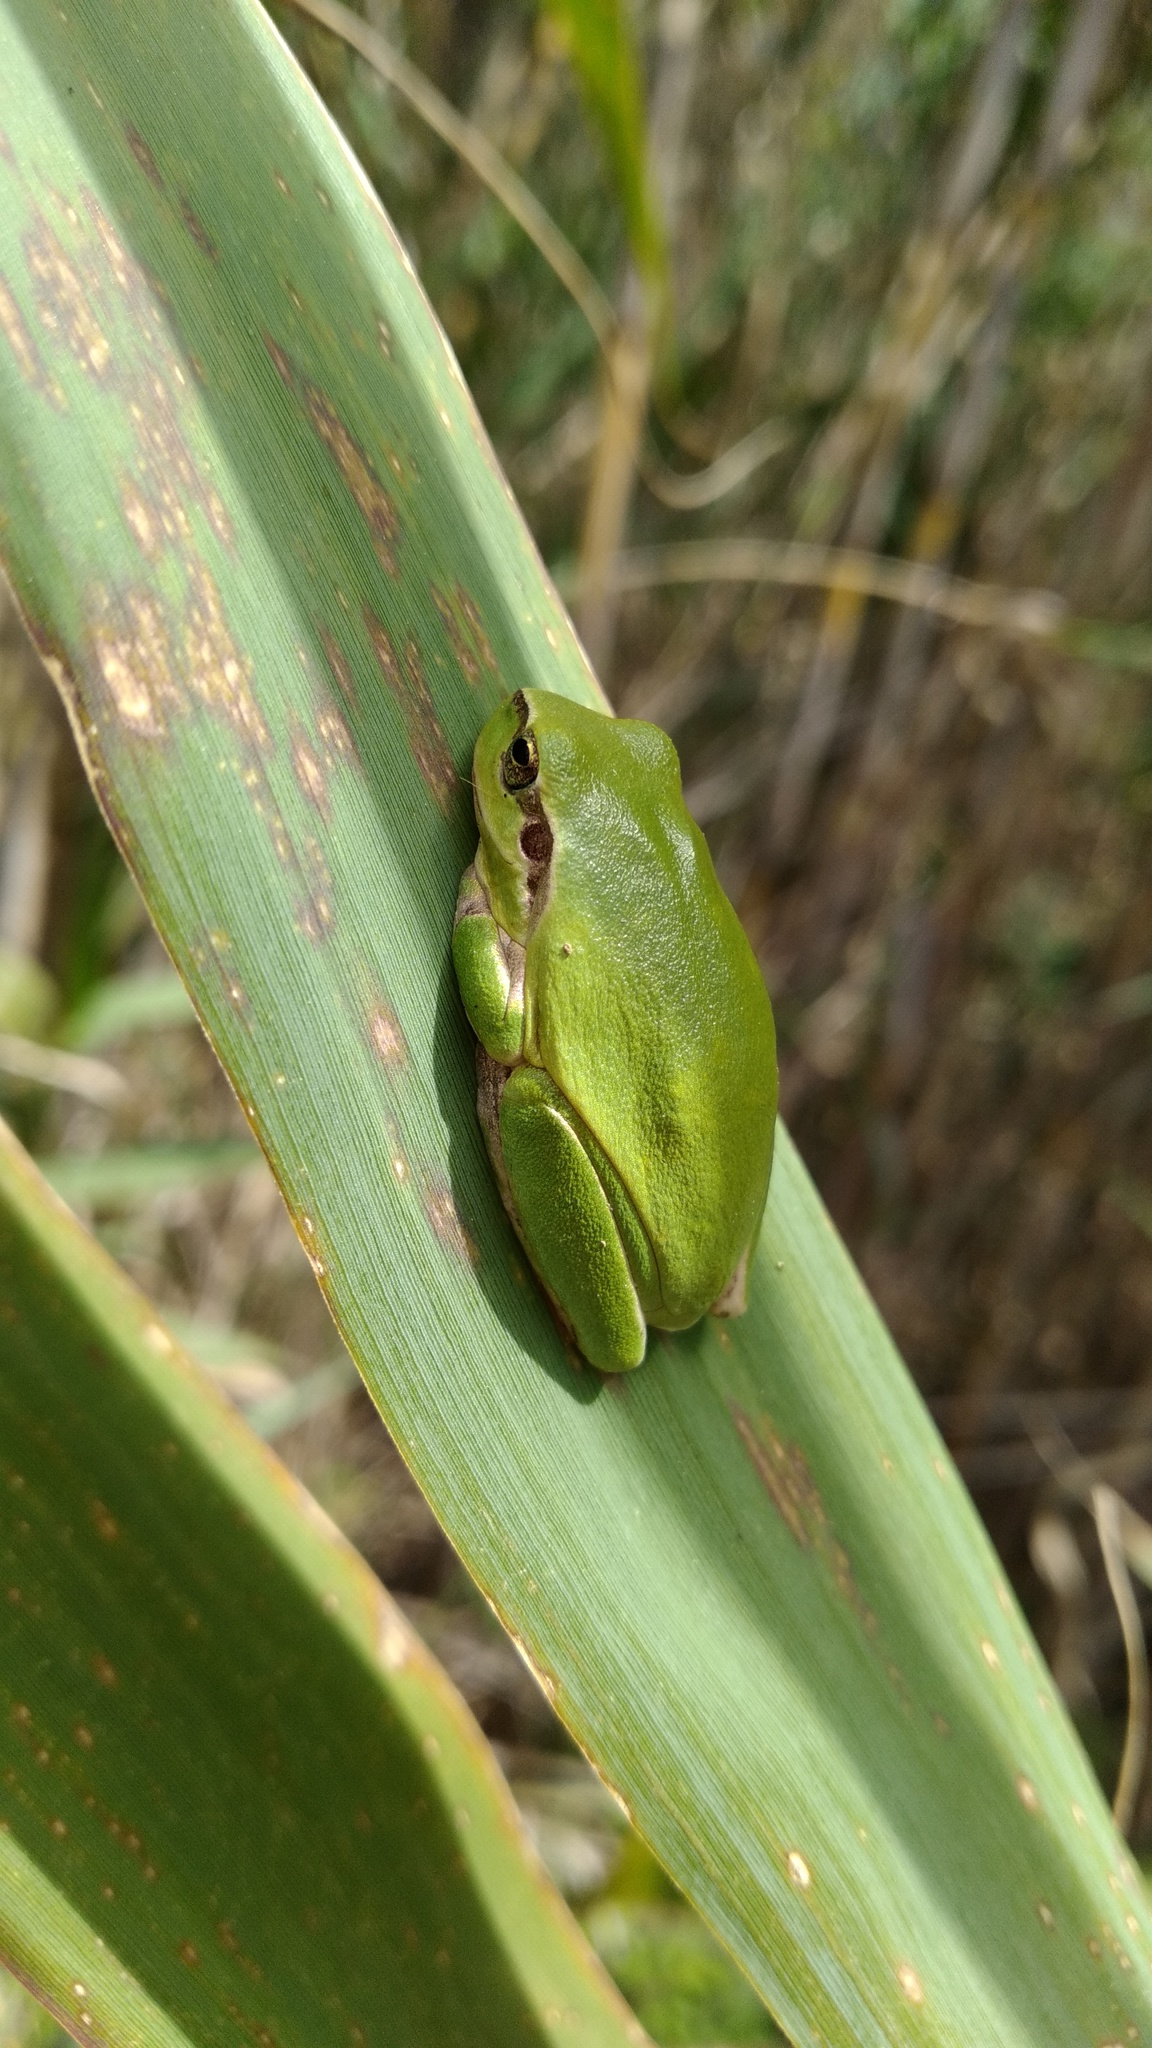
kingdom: Animalia
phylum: Chordata
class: Amphibia
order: Anura
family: Hylidae
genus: Hyla
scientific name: Hyla meridionalis
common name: Stripeless tree frog
